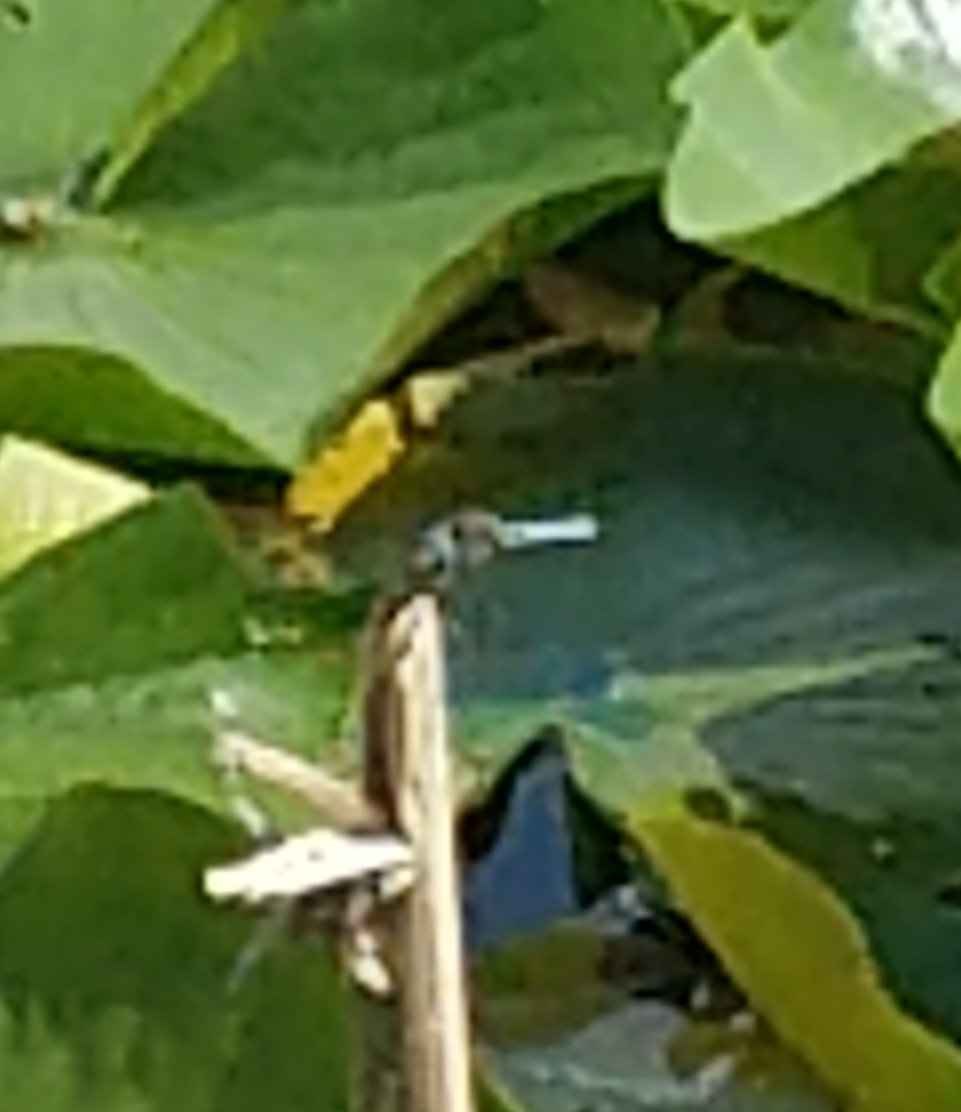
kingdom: Animalia
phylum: Arthropoda
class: Insecta
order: Odonata
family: Libellulidae
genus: Pachydiplax
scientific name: Pachydiplax longipennis
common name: Blue dasher
